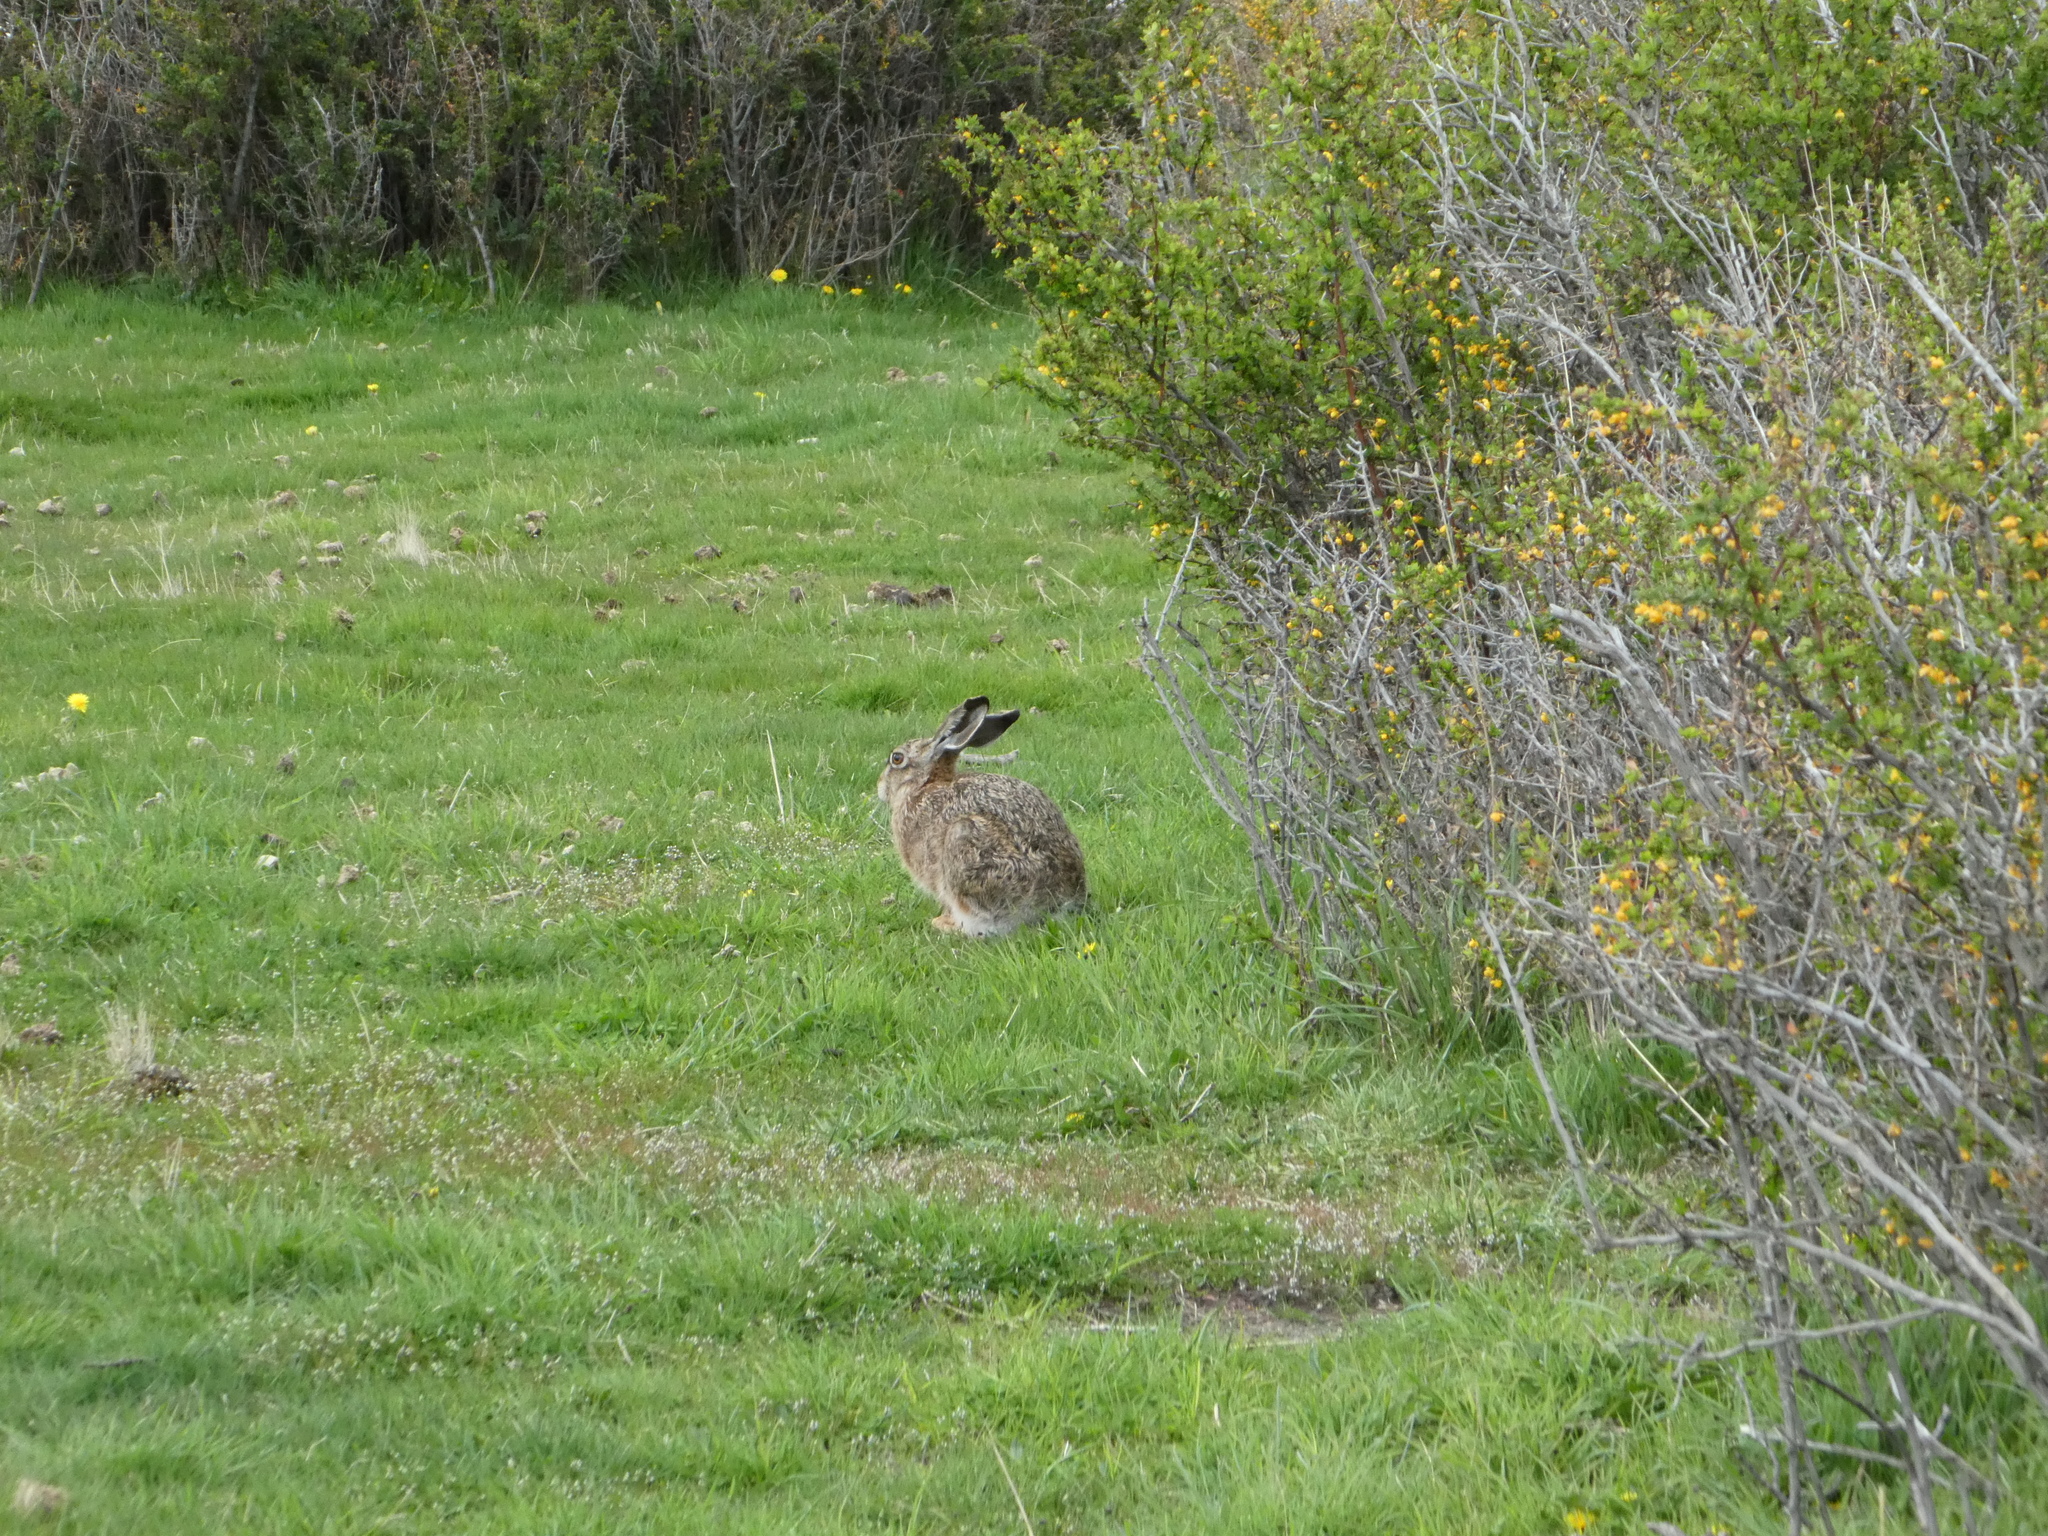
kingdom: Animalia
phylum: Chordata
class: Mammalia
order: Lagomorpha
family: Leporidae
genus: Lepus
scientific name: Lepus europaeus
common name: European hare
